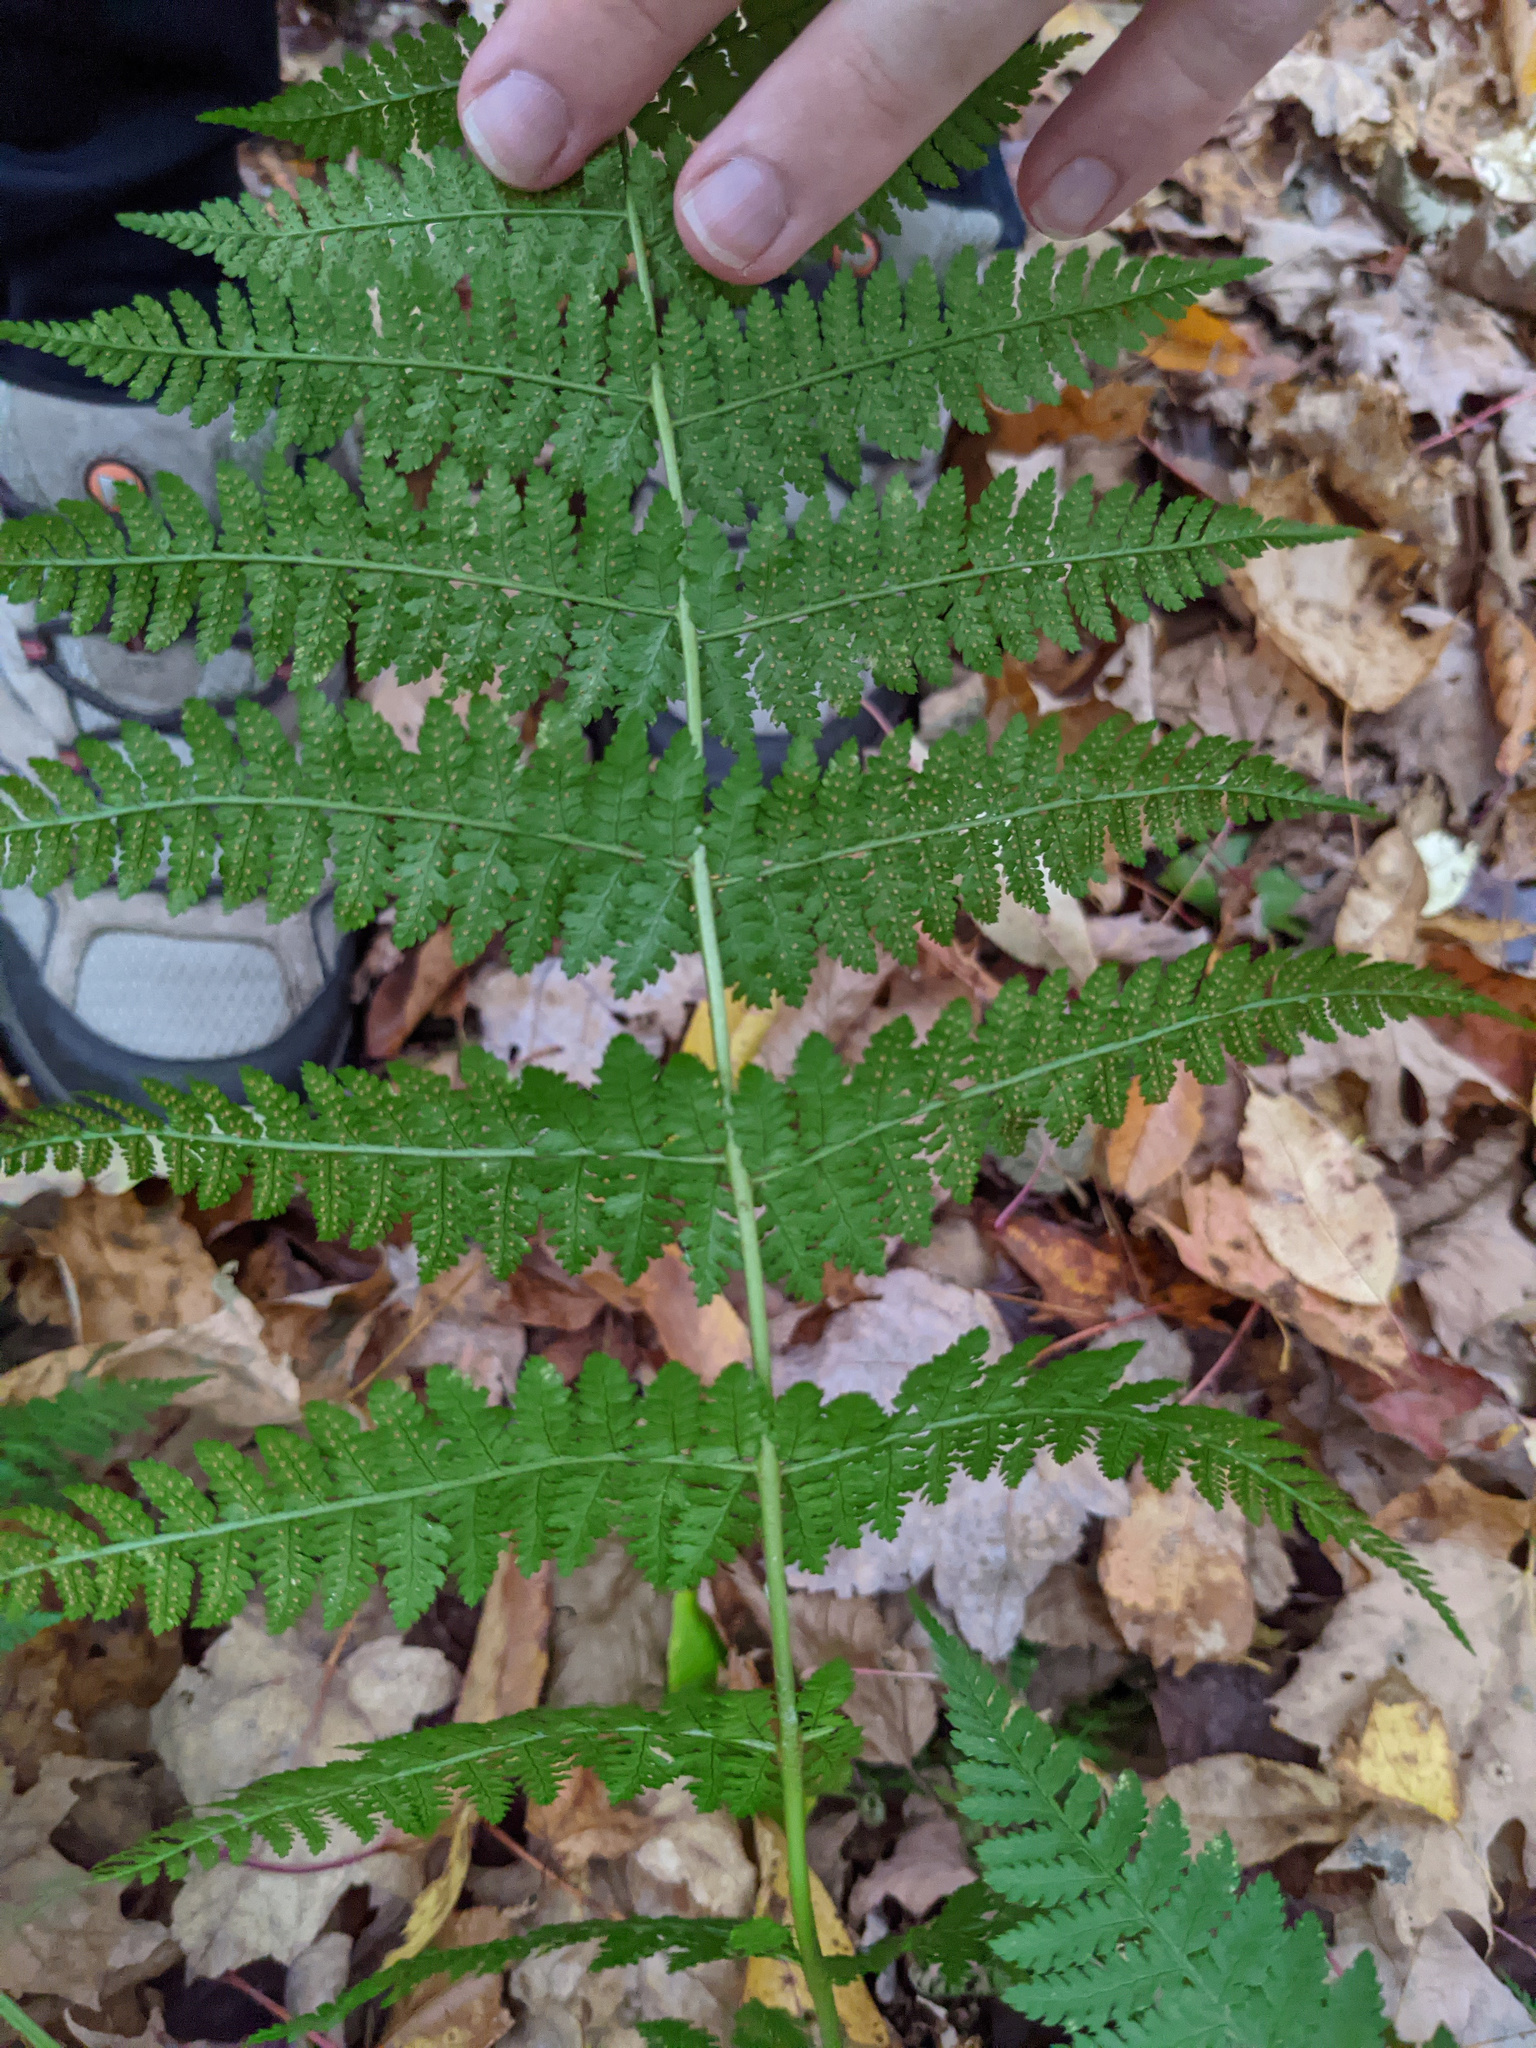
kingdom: Plantae
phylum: Tracheophyta
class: Polypodiopsida
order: Polypodiales
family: Dryopteridaceae
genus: Dryopteris
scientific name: Dryopteris intermedia
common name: Evergreen wood fern
